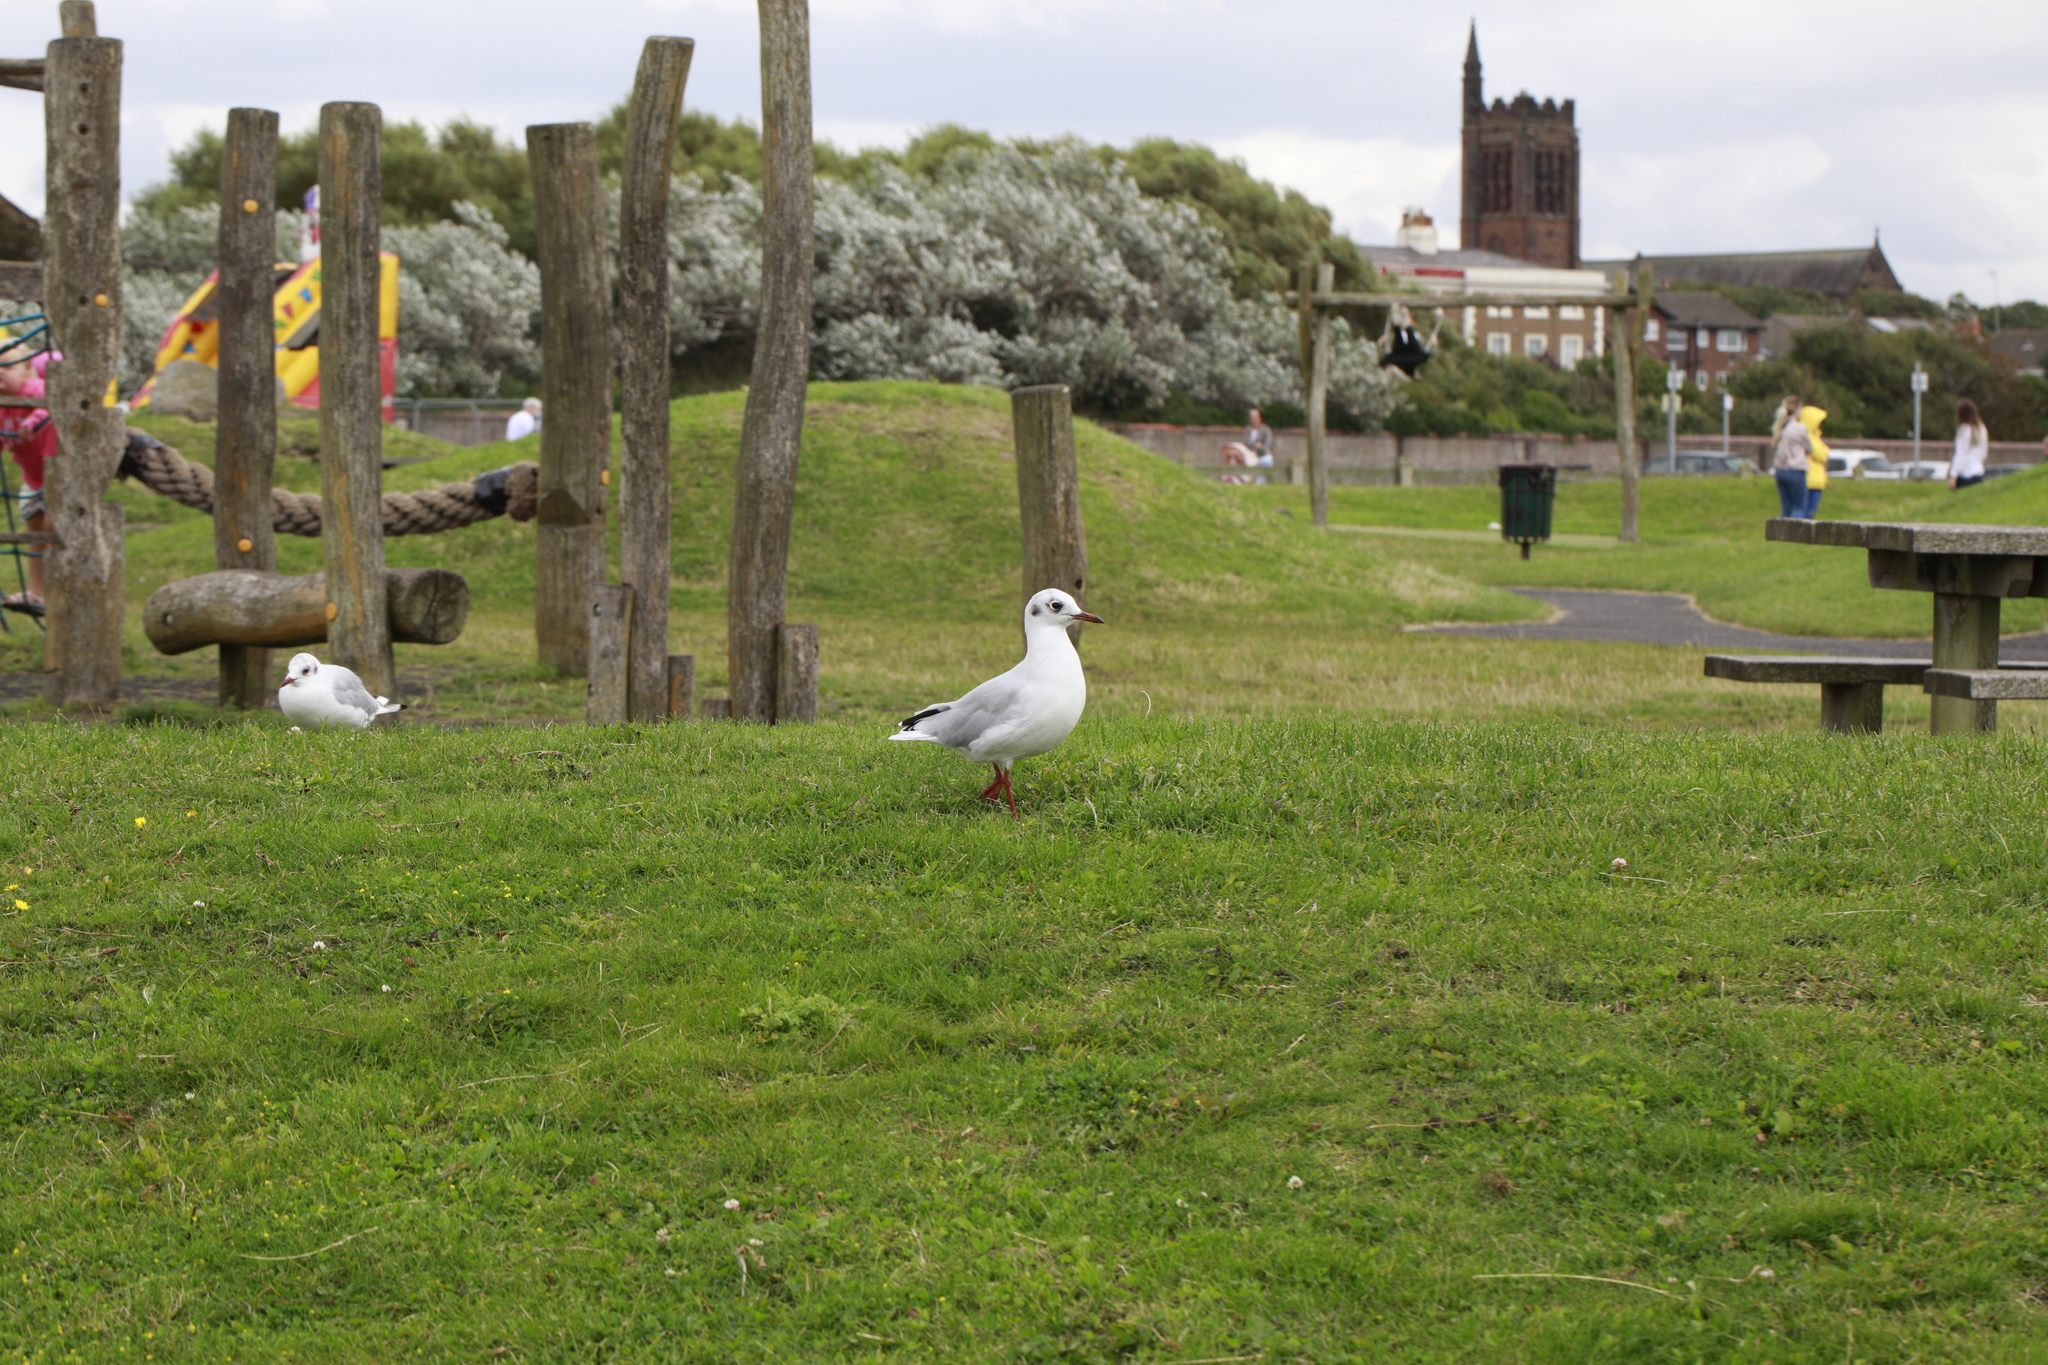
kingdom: Animalia
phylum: Chordata
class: Aves
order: Charadriiformes
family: Laridae
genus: Chroicocephalus
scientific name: Chroicocephalus ridibundus
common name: Black-headed gull
